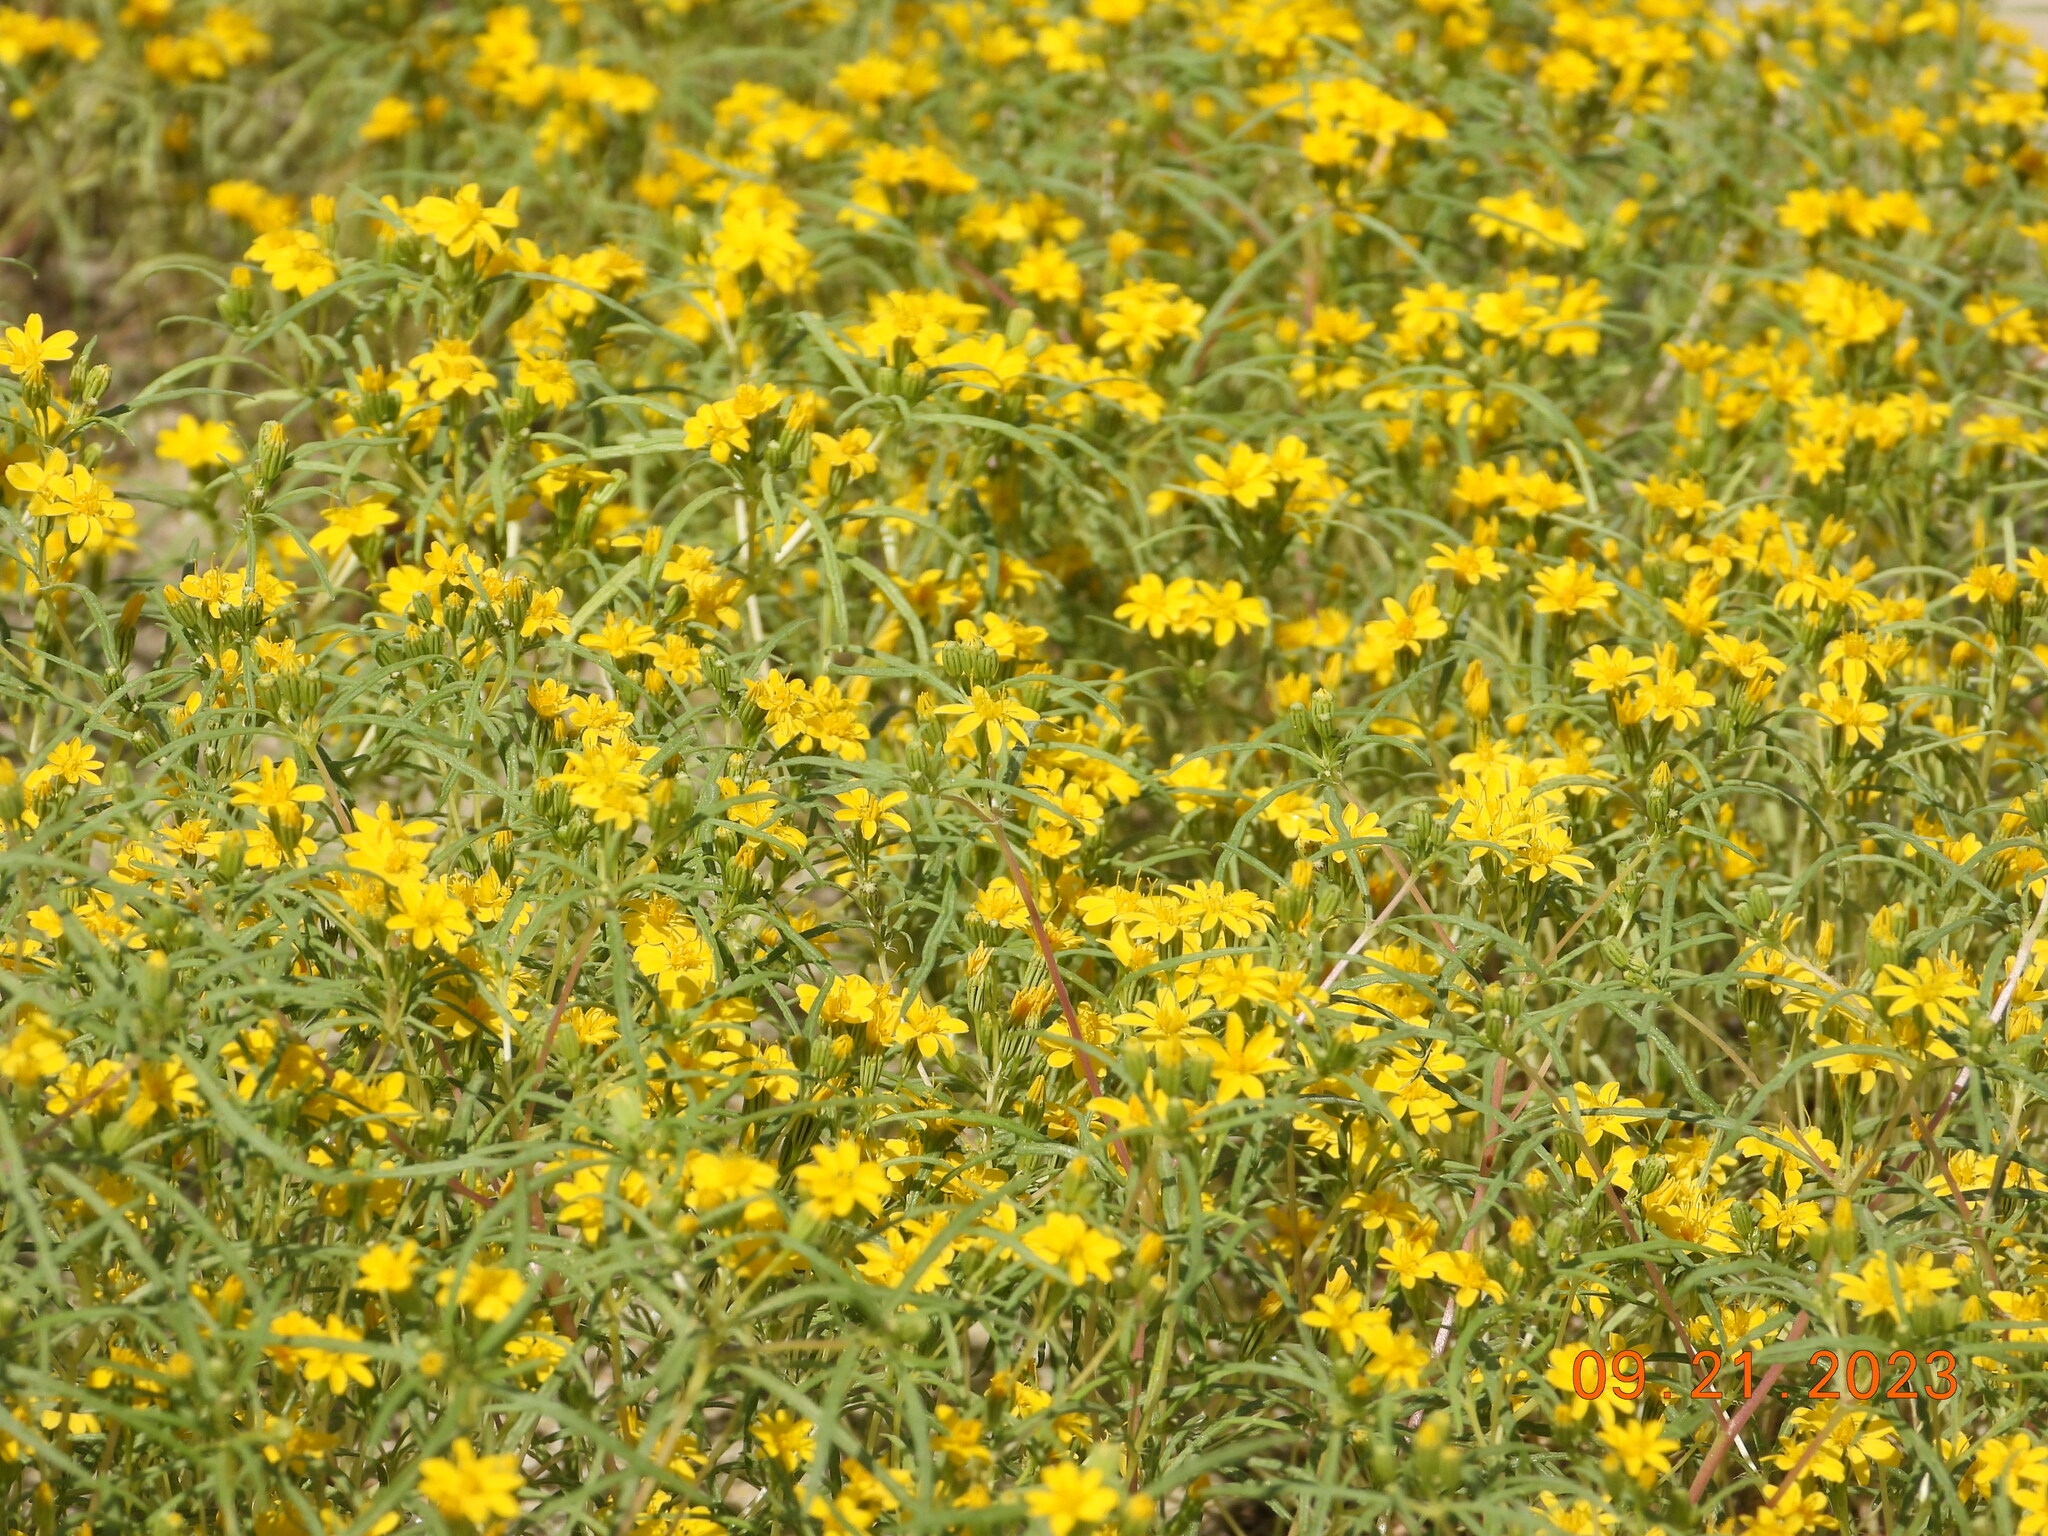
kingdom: Plantae
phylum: Tracheophyta
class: Magnoliopsida
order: Asterales
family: Asteraceae
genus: Pectis
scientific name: Pectis papposa
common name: Many-bristle chinchweed
